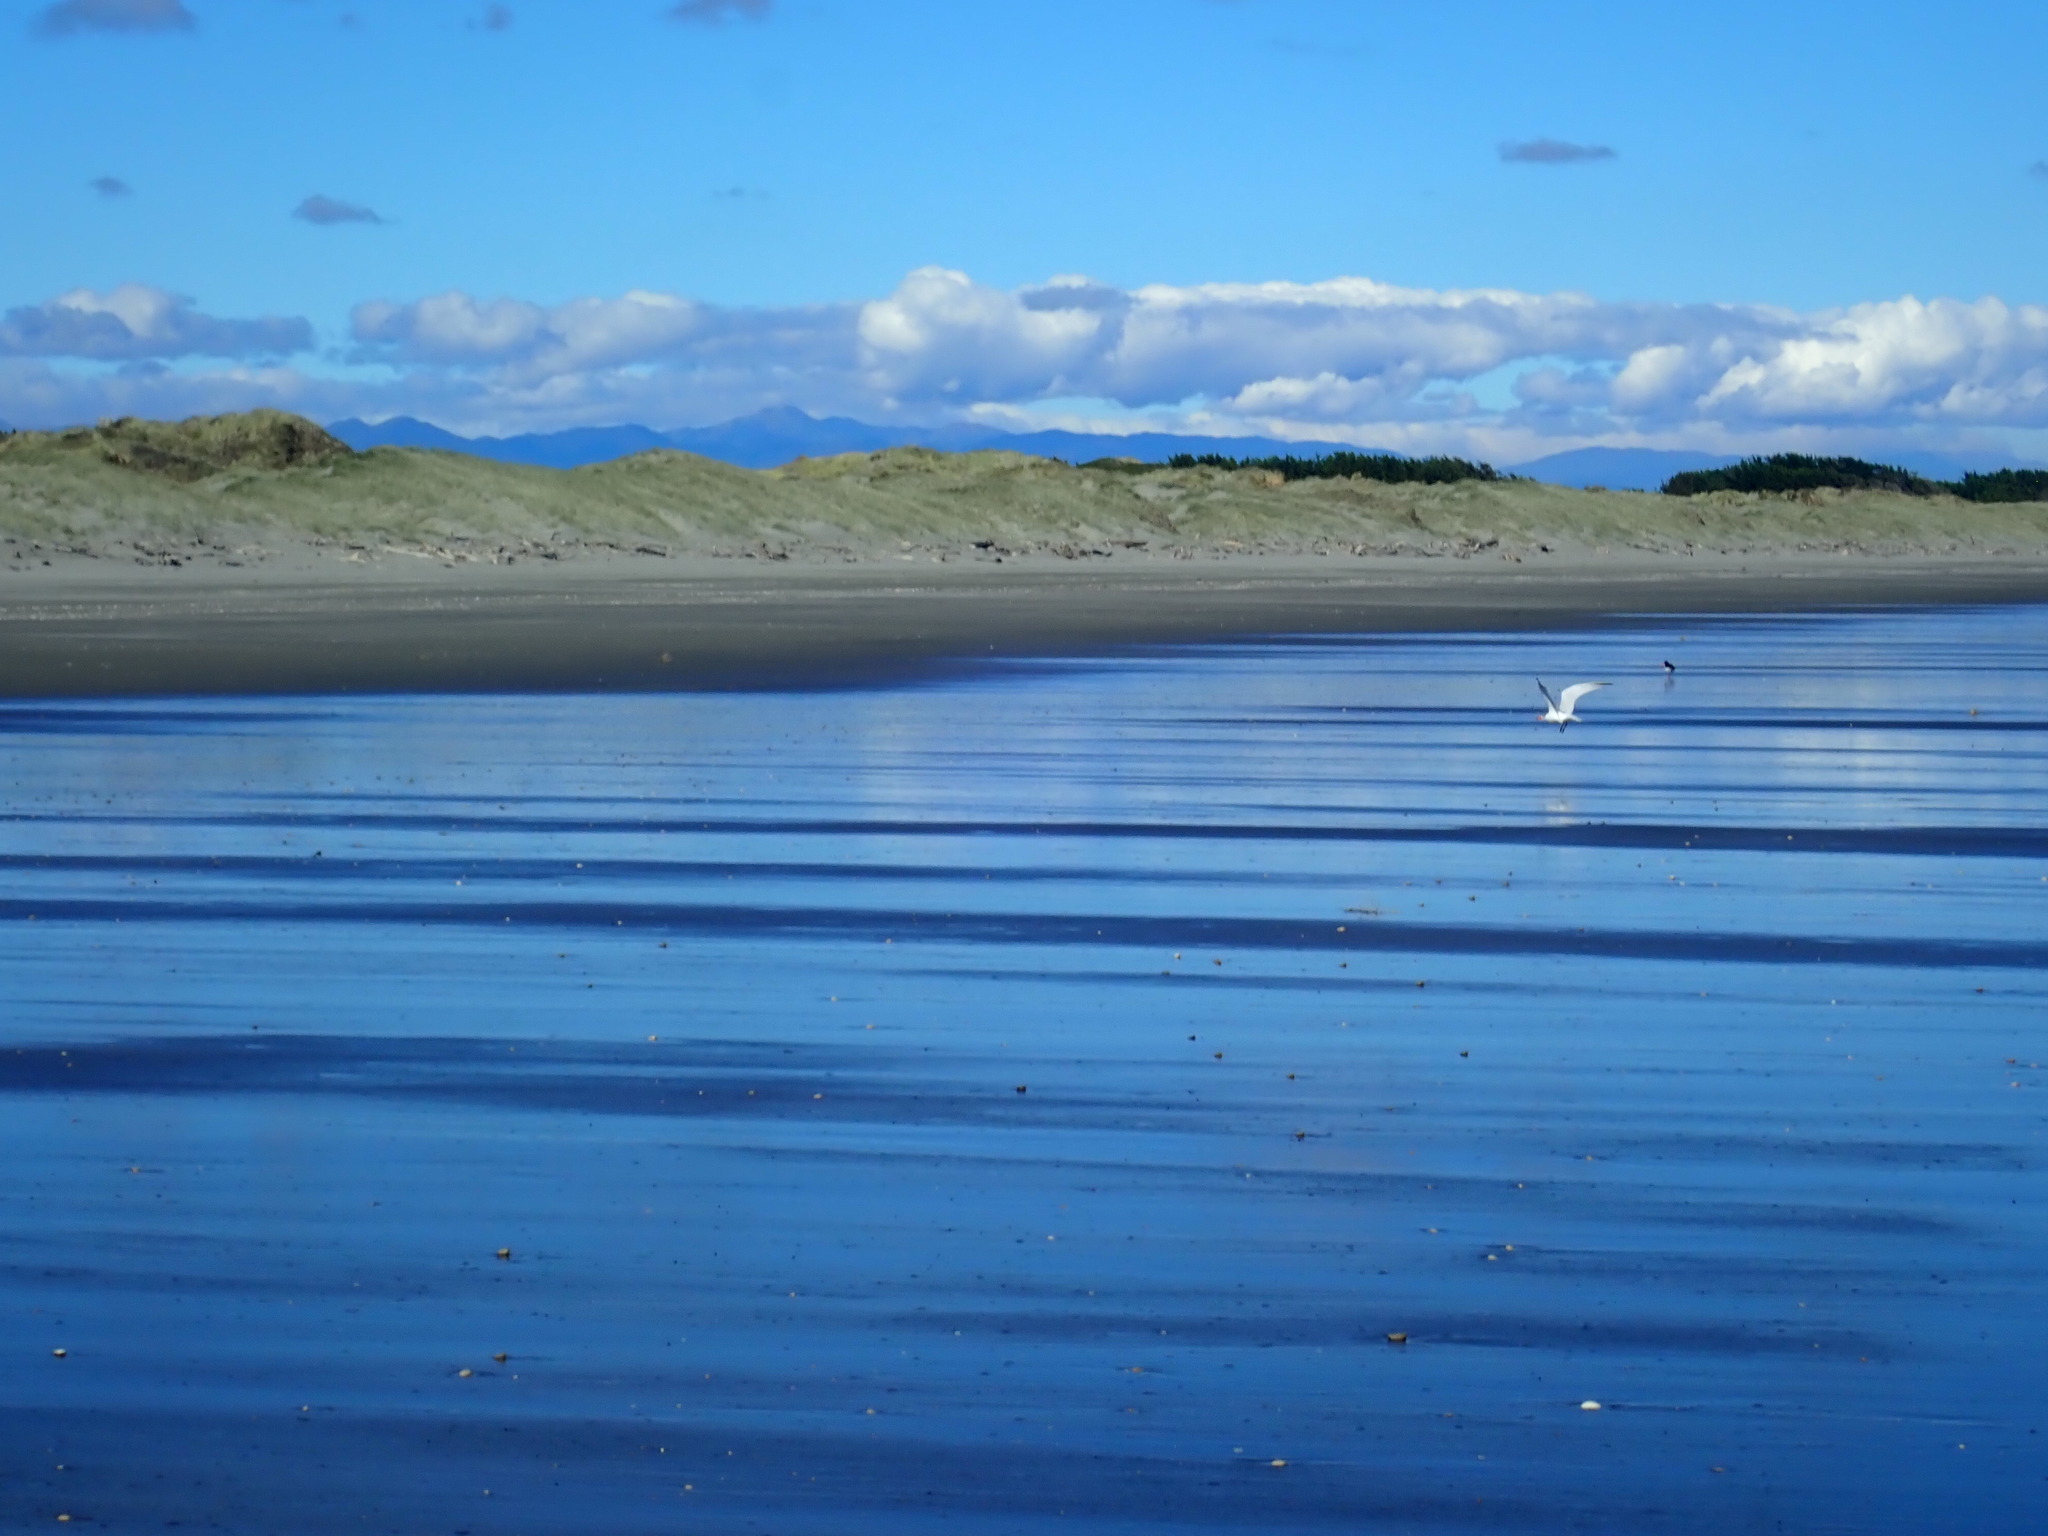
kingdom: Animalia
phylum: Chordata
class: Aves
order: Charadriiformes
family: Laridae
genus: Hydroprogne
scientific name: Hydroprogne caspia
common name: Caspian tern
